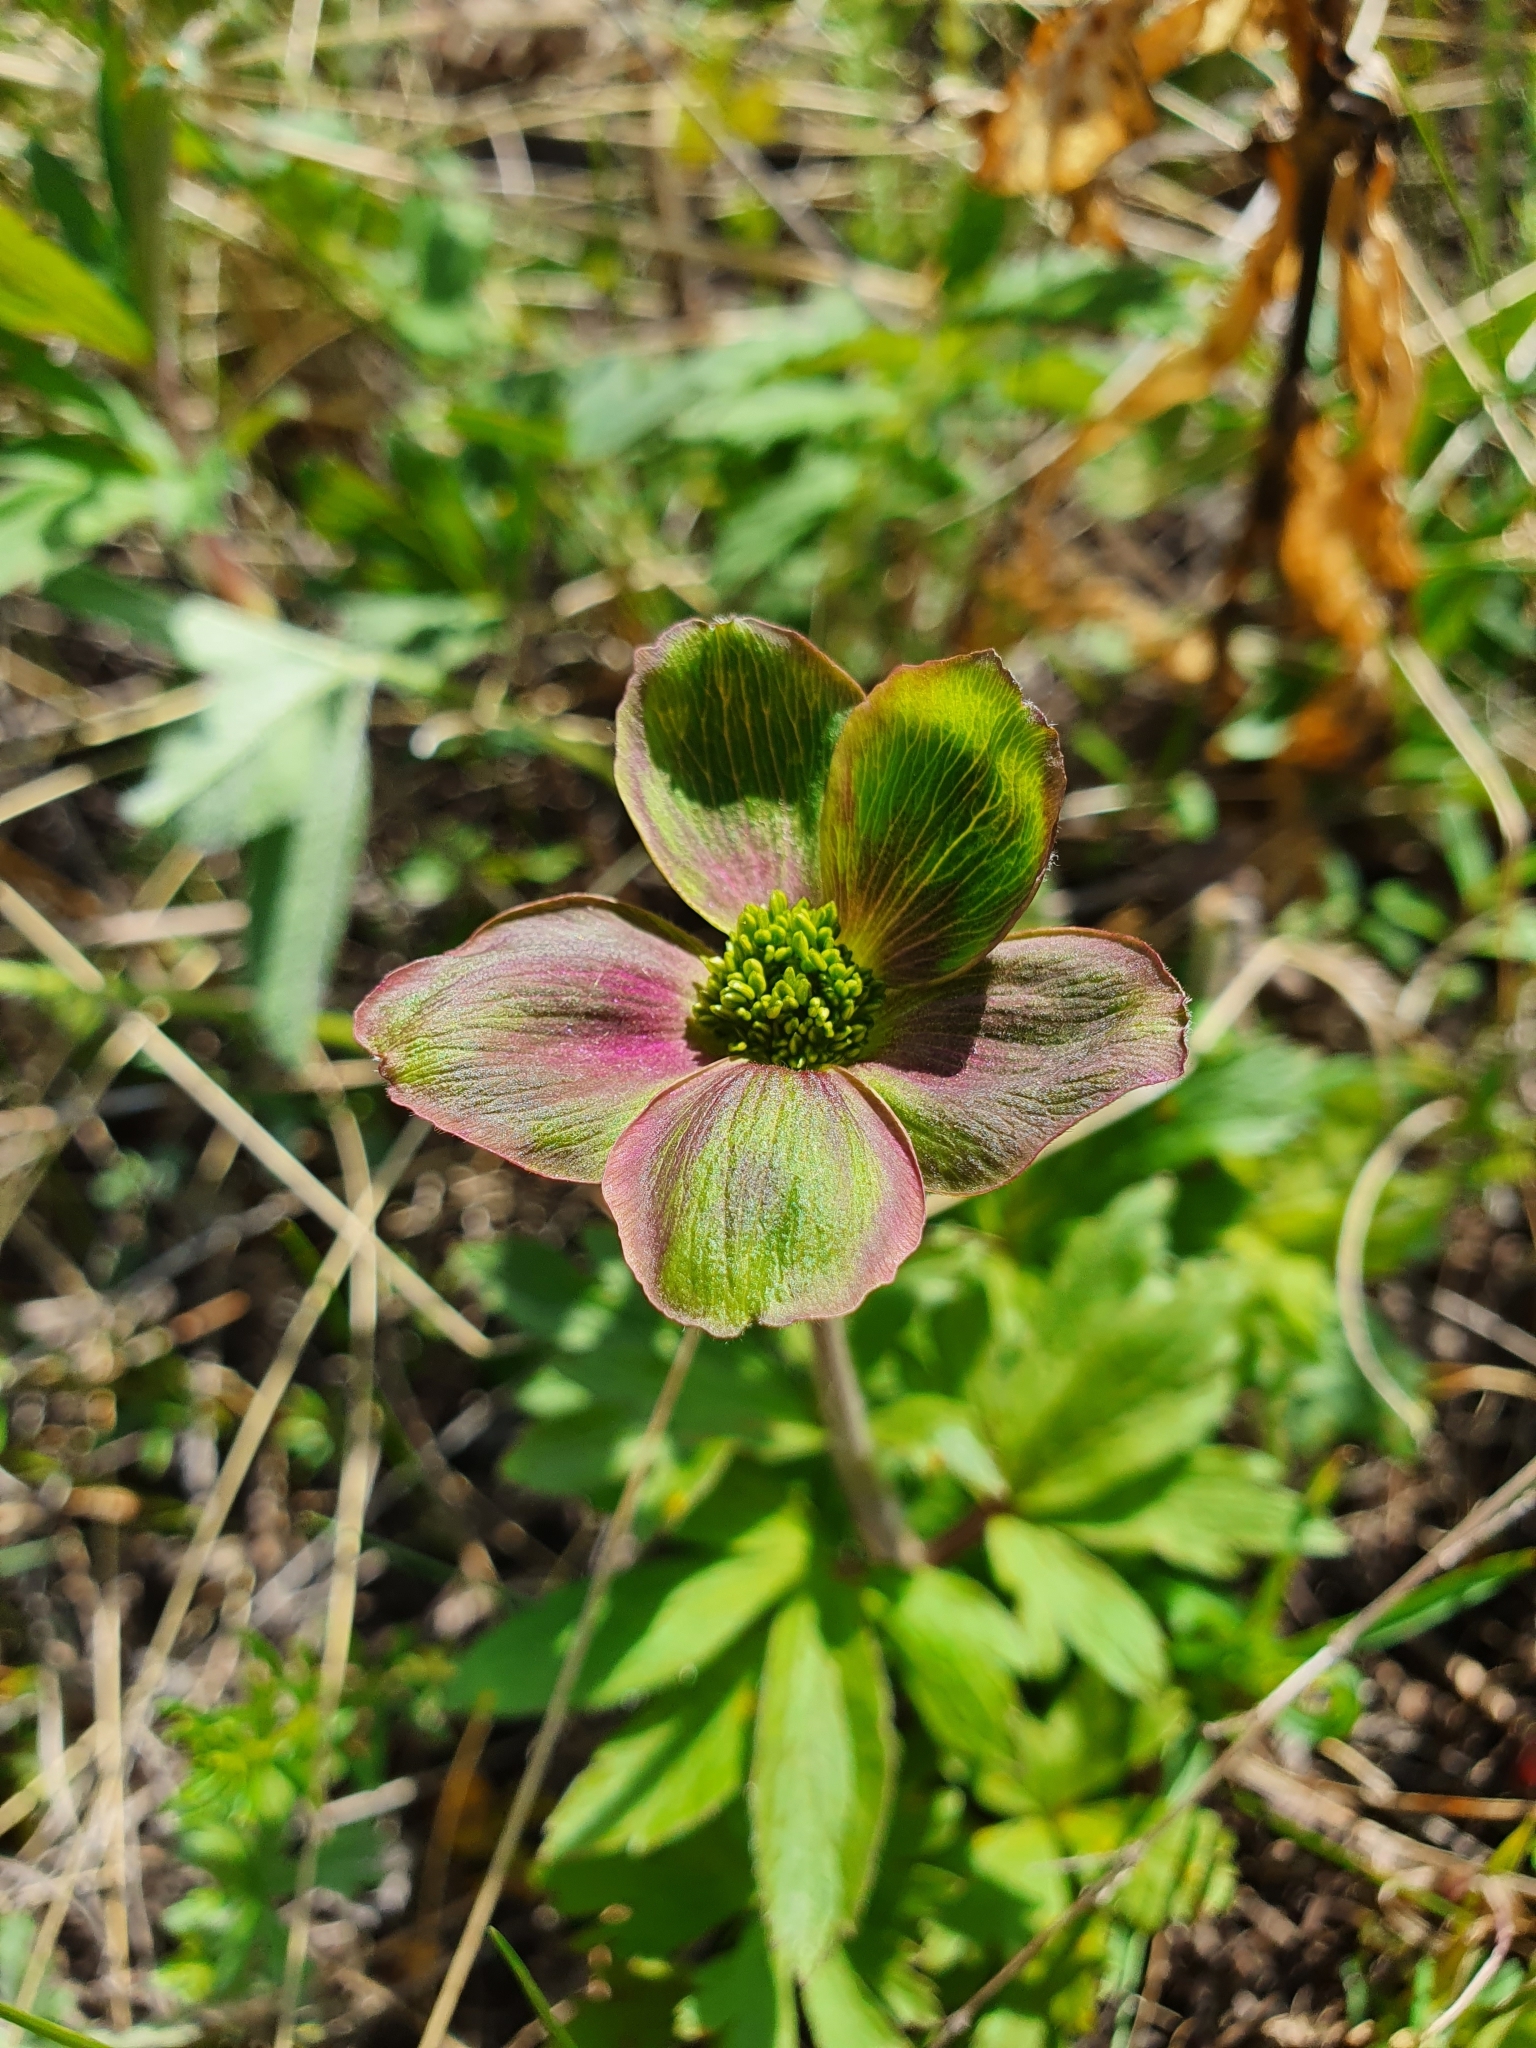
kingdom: Plantae
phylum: Tracheophyta
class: Magnoliopsida
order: Ranunculales
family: Ranunculaceae
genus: Anemone
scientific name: Anemone sylvestris
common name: Snowdrop anemone
